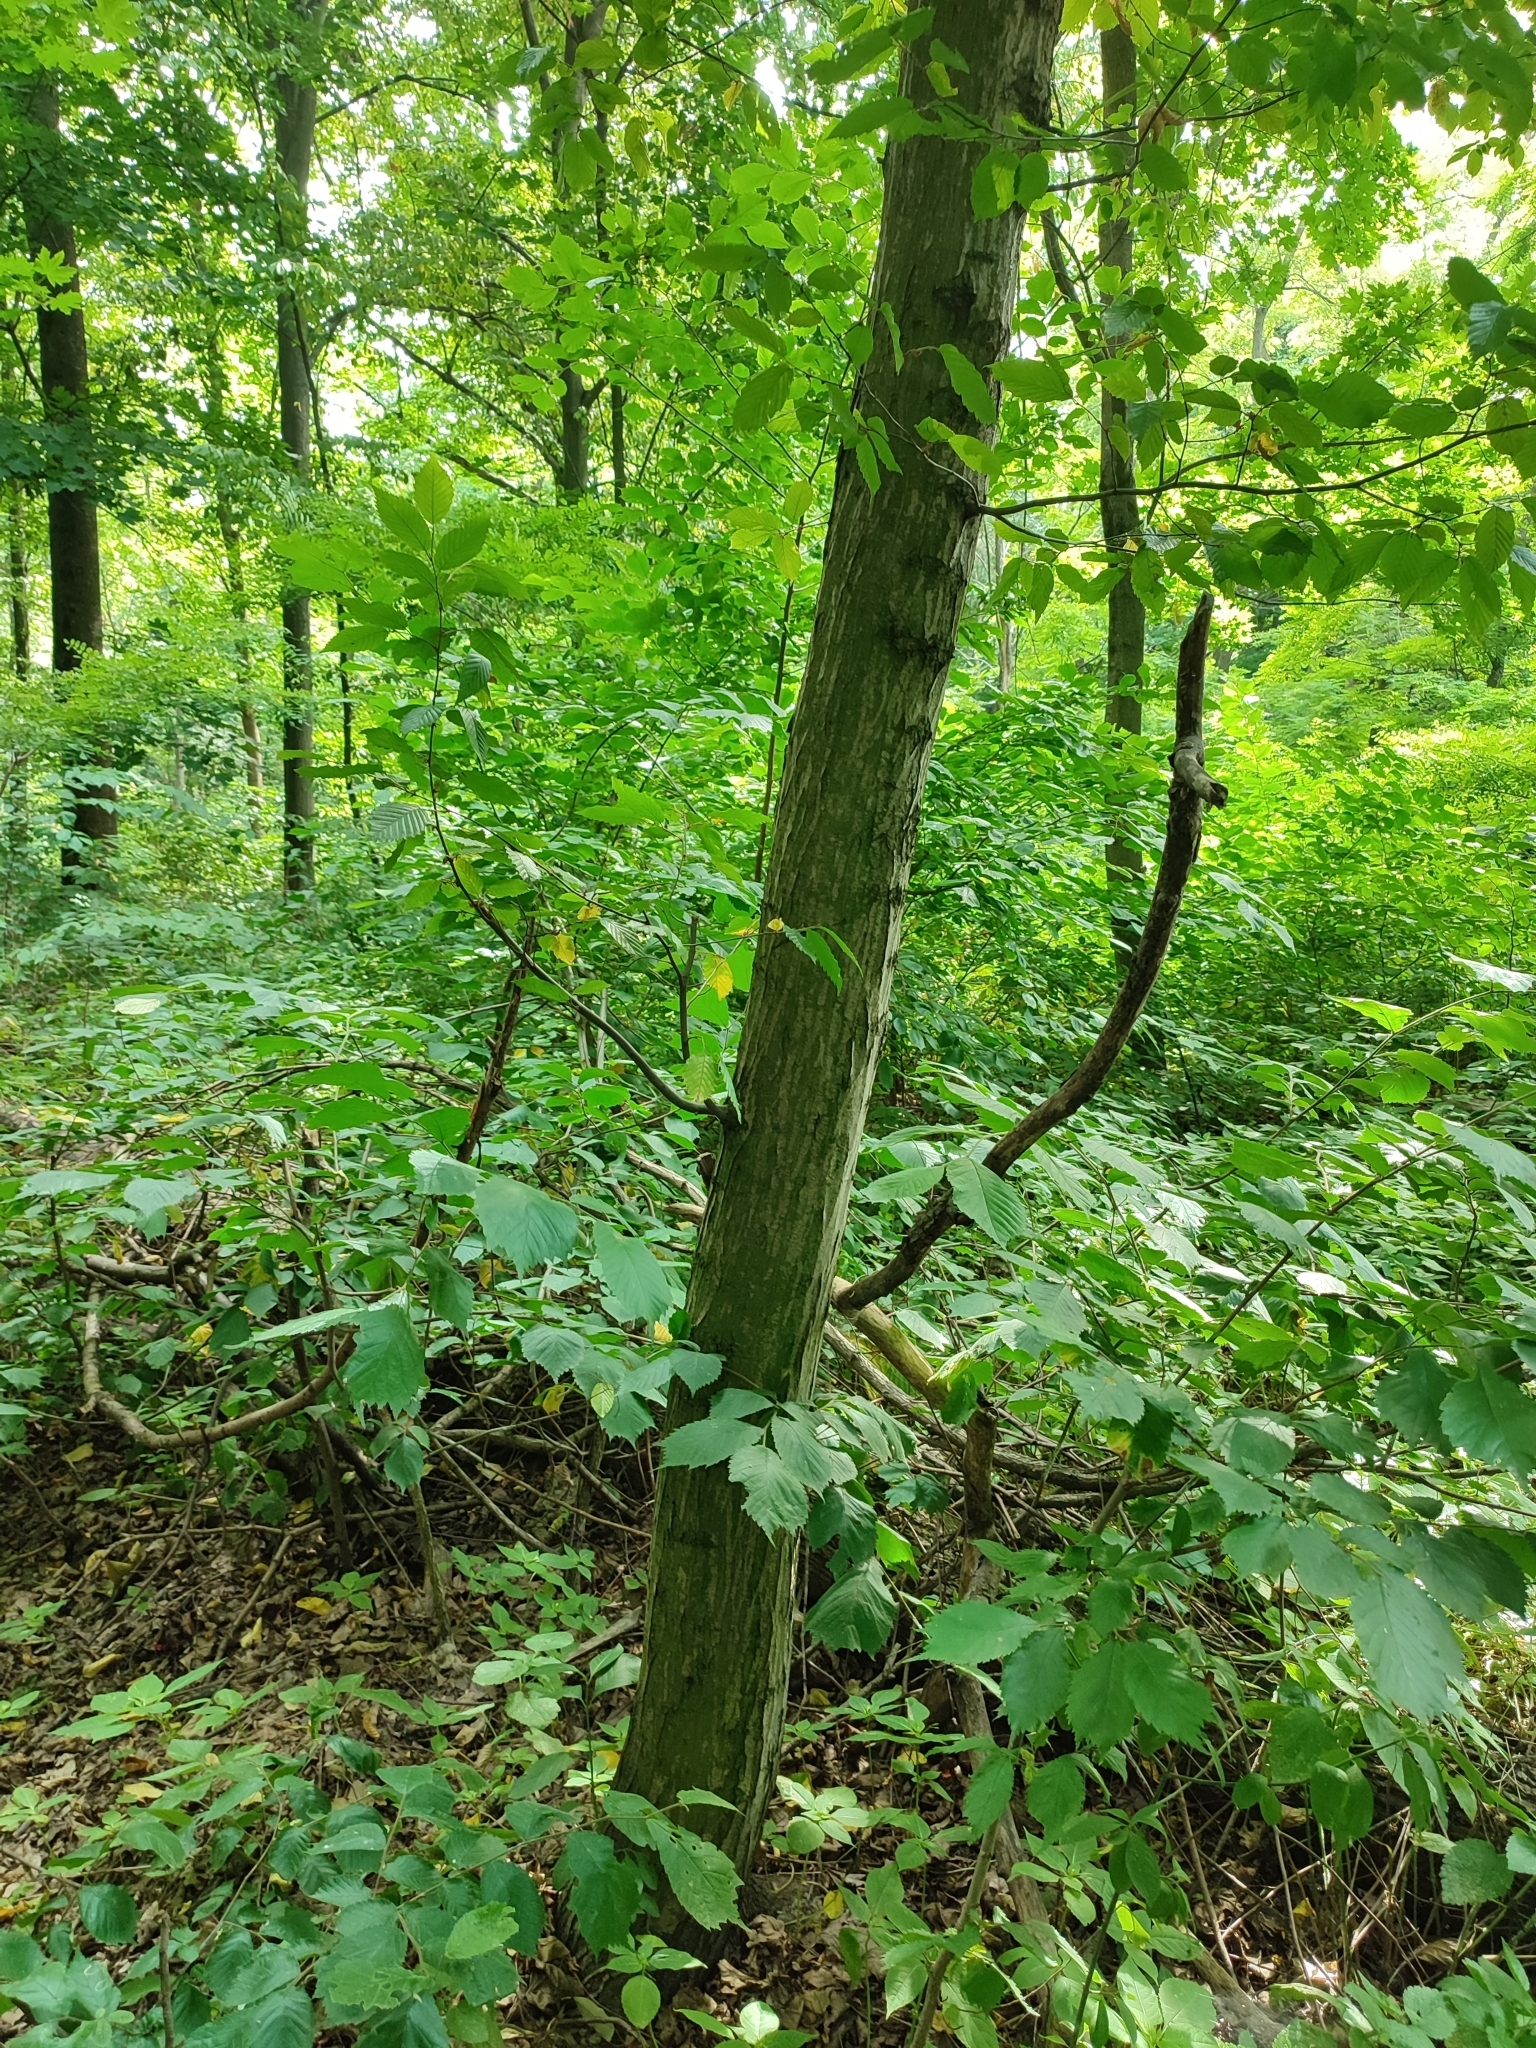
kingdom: Plantae
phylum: Tracheophyta
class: Magnoliopsida
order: Fagales
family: Betulaceae
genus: Carpinus
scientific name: Carpinus betulus
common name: Hornbeam
